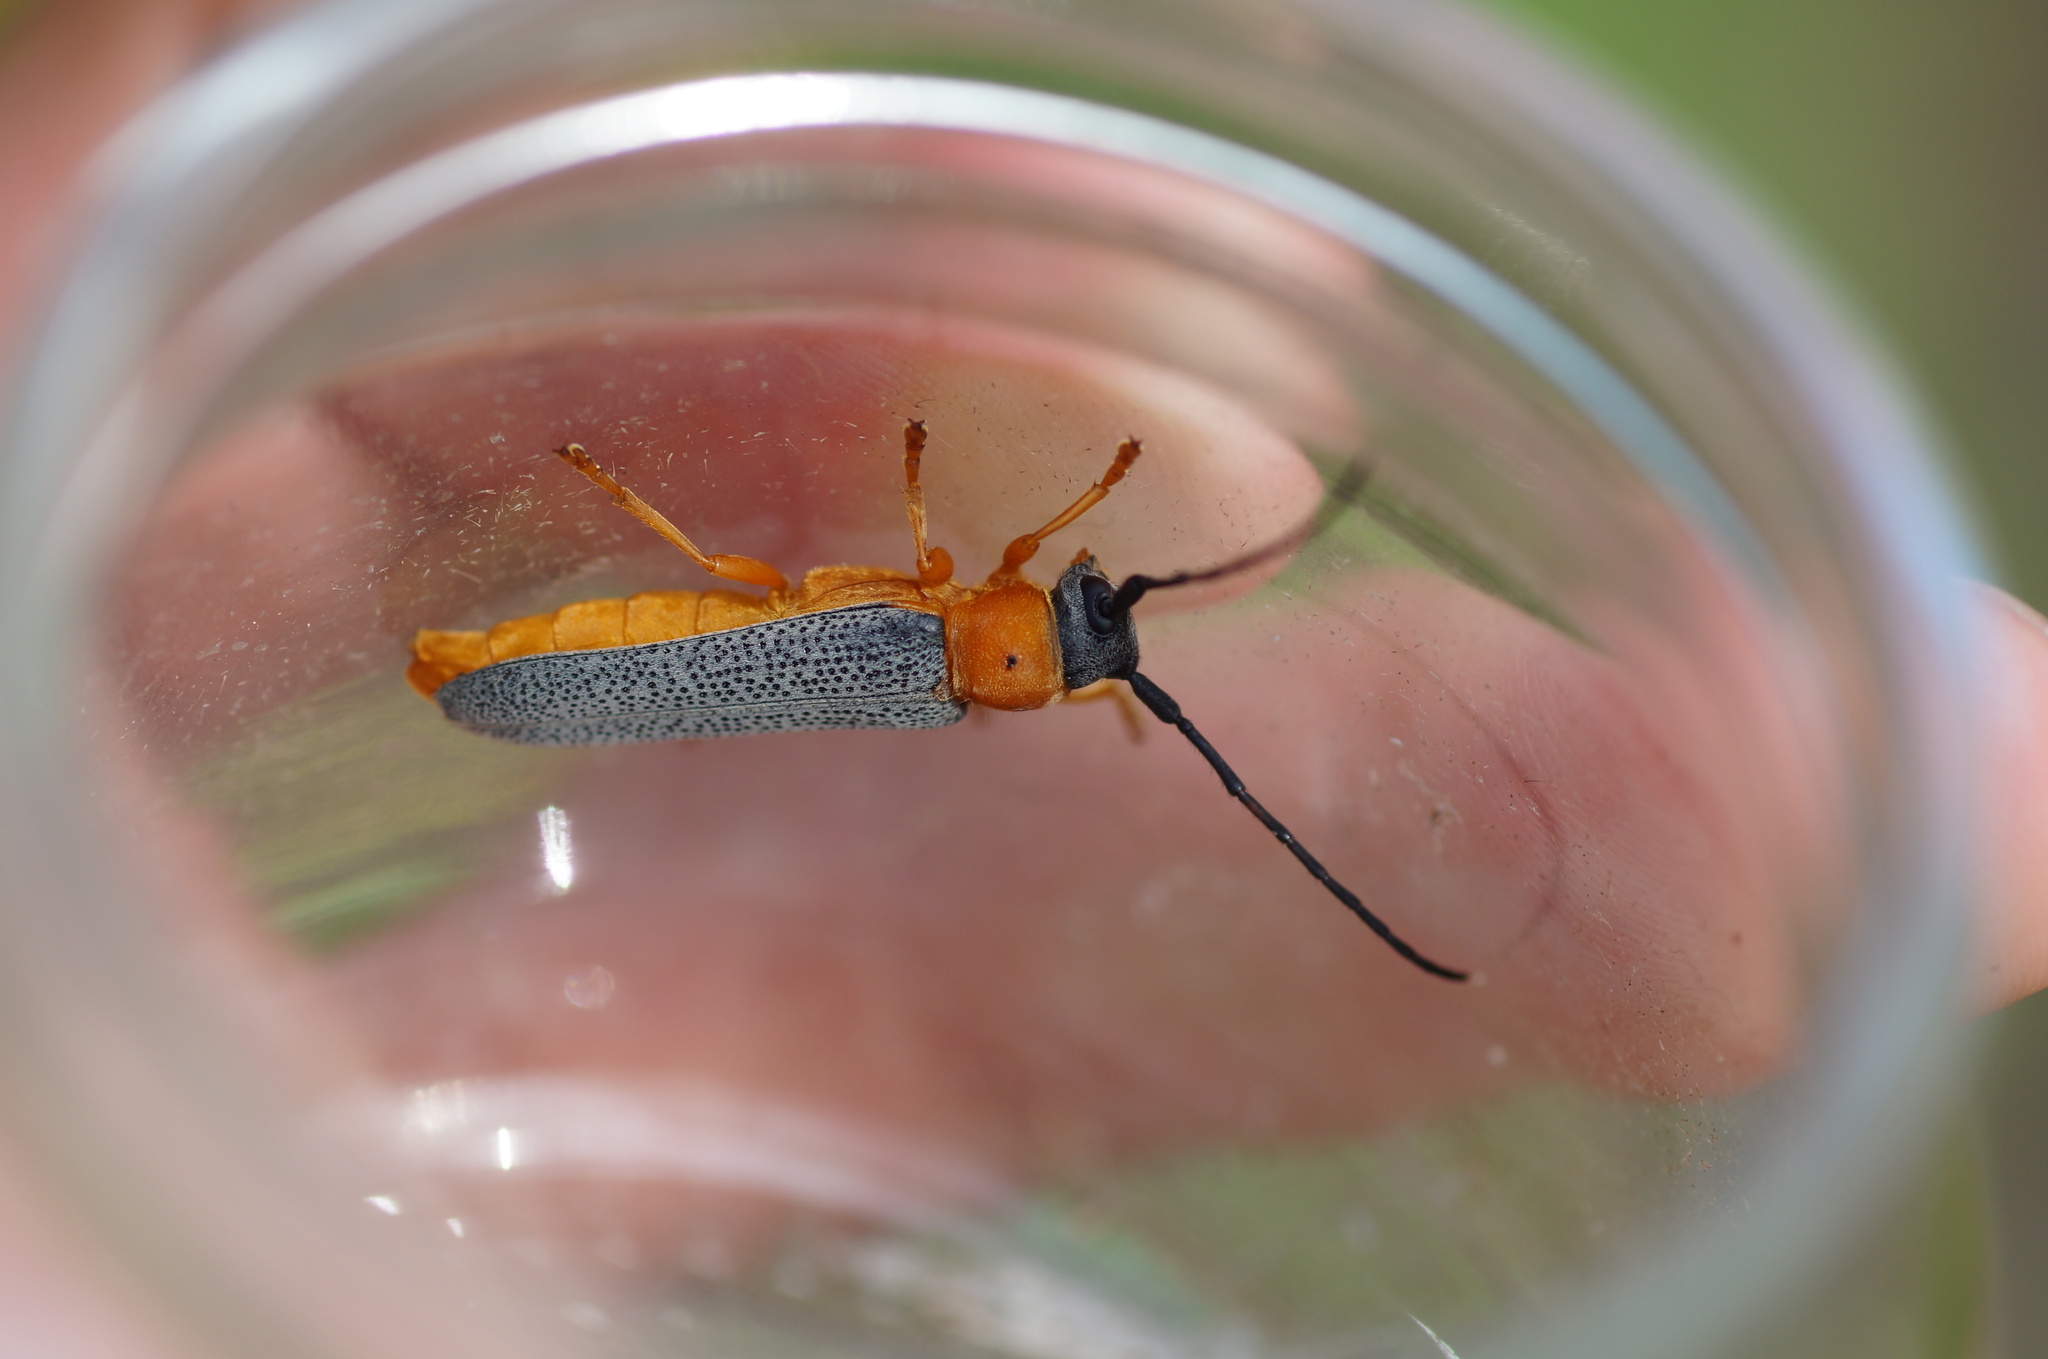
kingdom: Animalia
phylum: Arthropoda
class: Insecta
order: Coleoptera
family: Cerambycidae
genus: Oberea
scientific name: Oberea oculata
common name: Eyed longhorn beetle
